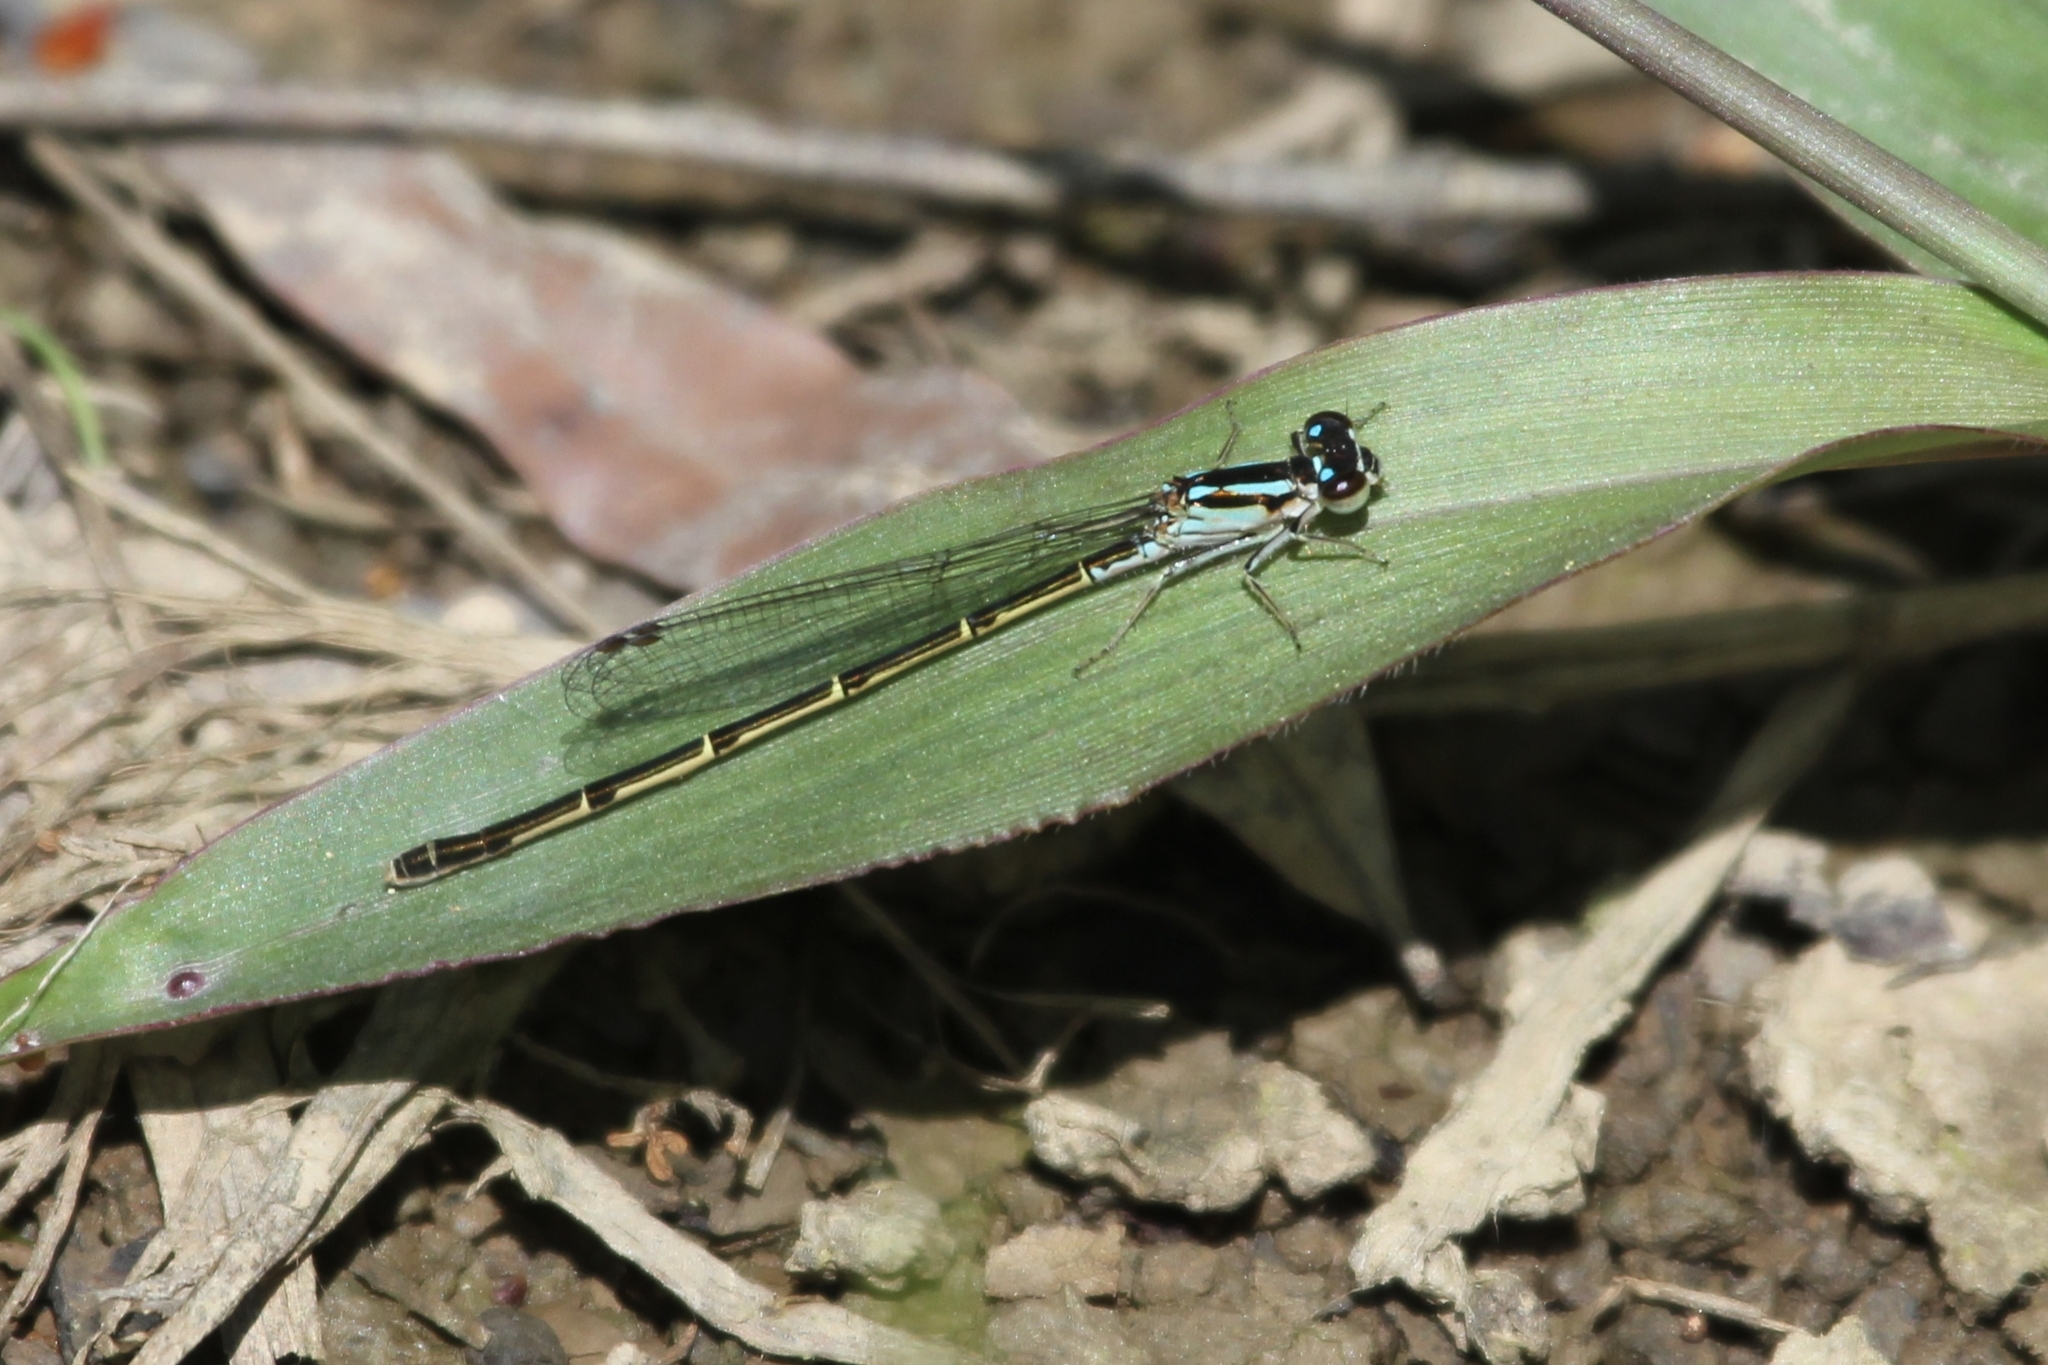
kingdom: Animalia
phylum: Arthropoda
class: Insecta
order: Odonata
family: Coenagrionidae
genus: Ischnura
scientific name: Ischnura posita
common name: Fragile forktail
